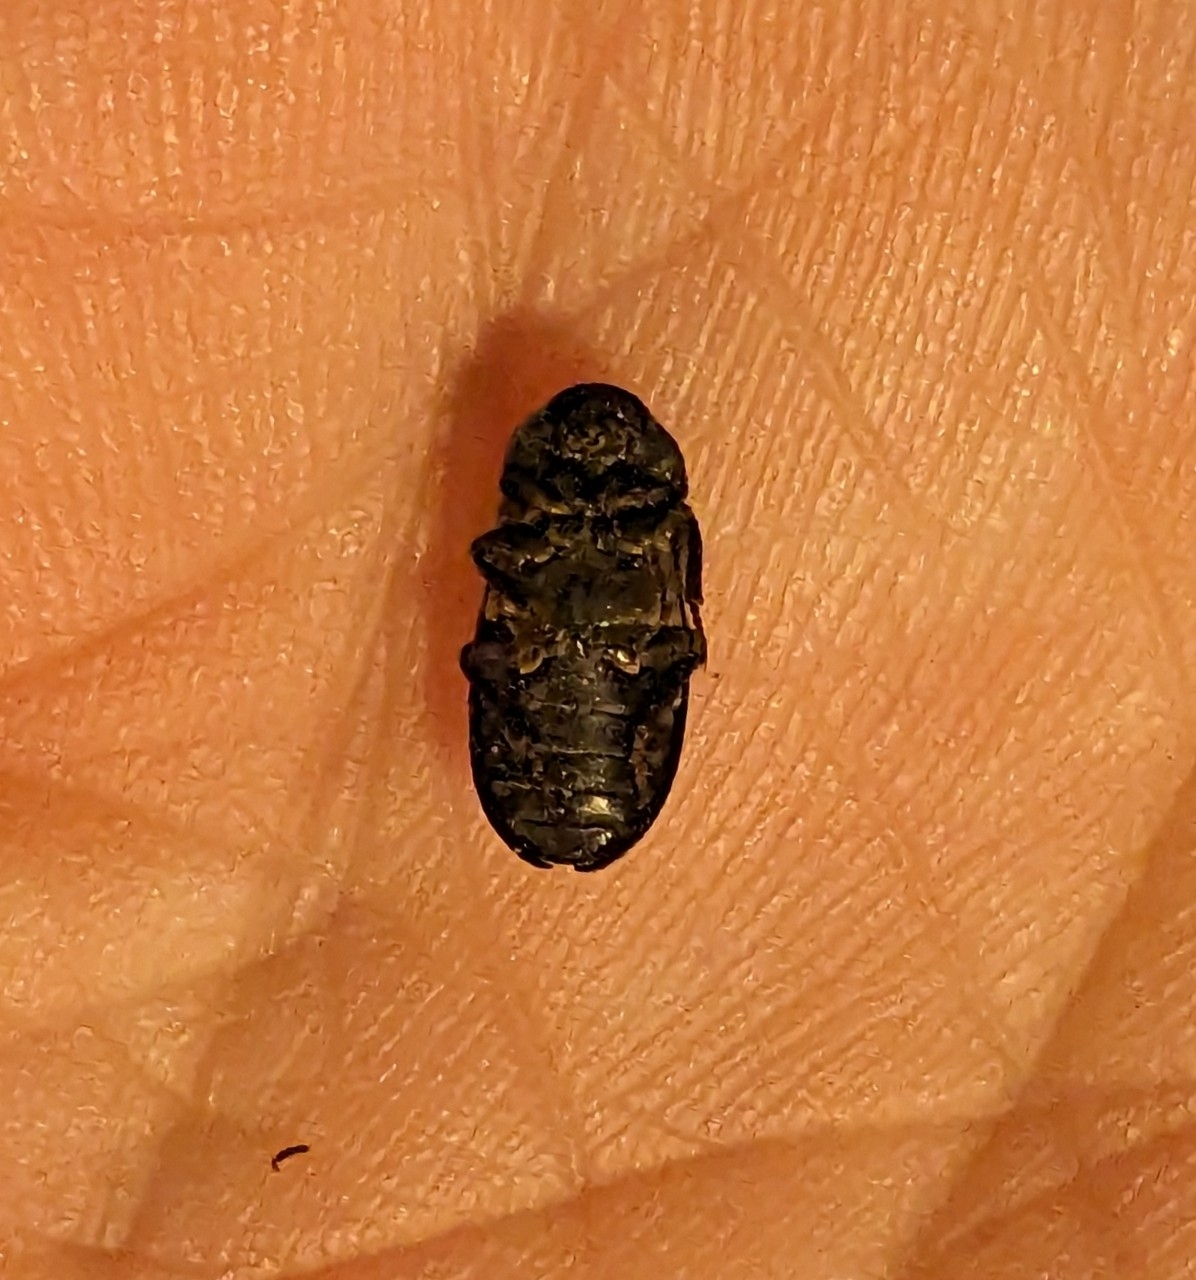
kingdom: Animalia
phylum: Arthropoda
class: Insecta
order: Coleoptera
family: Dermestidae
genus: Dermestes
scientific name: Dermestes lardarius
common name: Larder beetle
